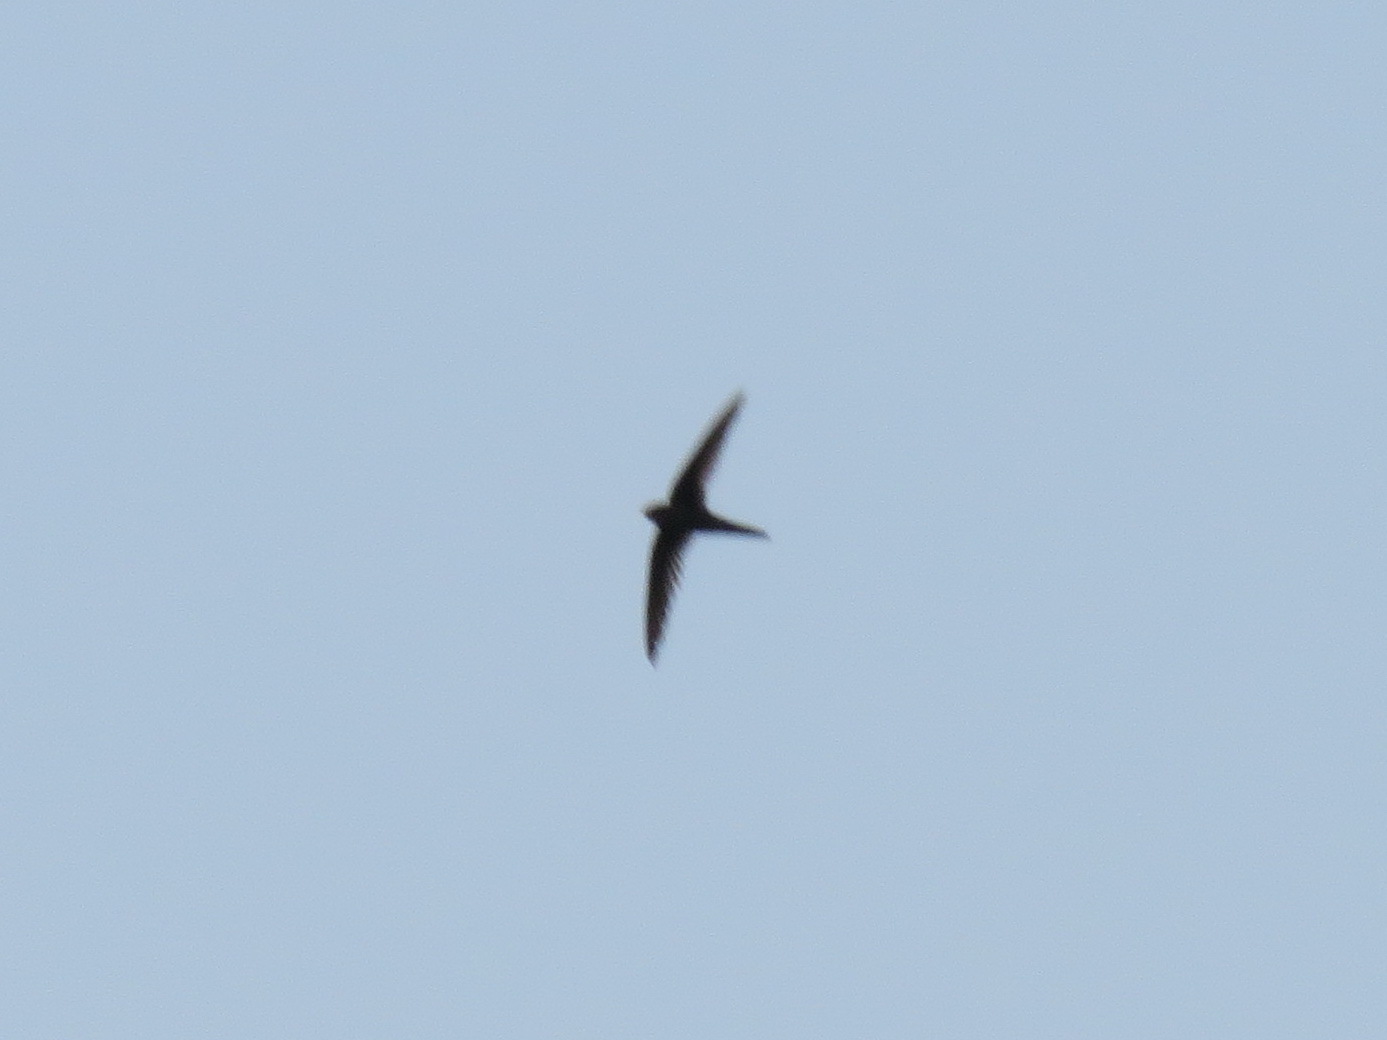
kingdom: Animalia
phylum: Chordata
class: Aves
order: Apodiformes
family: Apodidae
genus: Cypsiurus
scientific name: Cypsiurus balasiensis
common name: Asian palm swift
